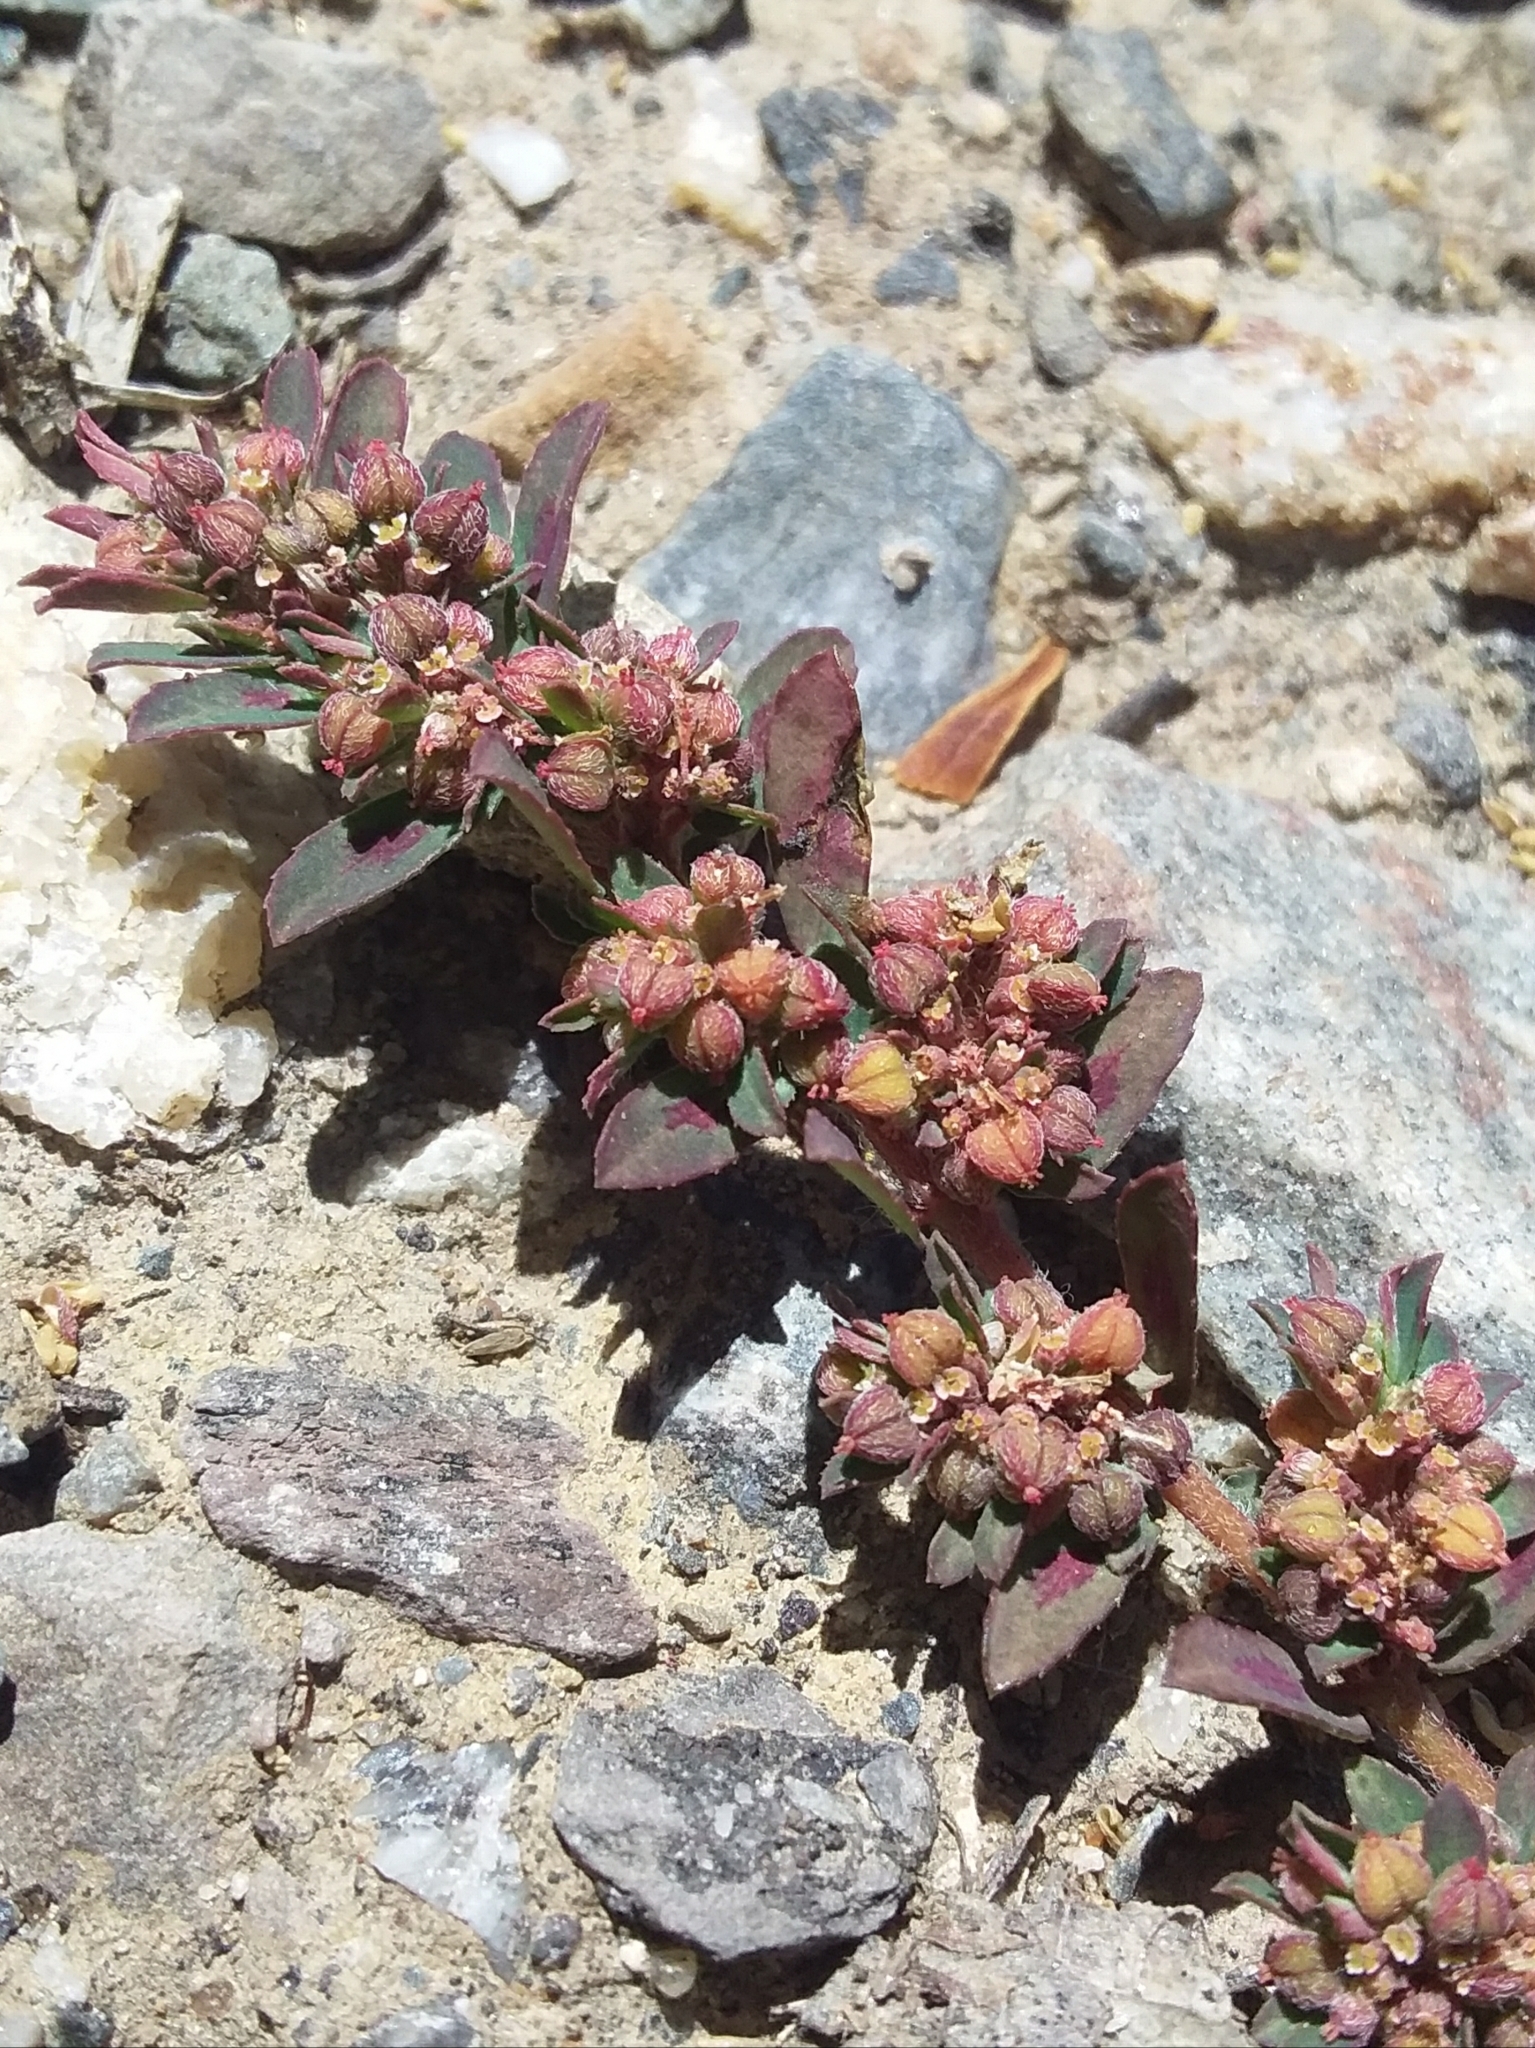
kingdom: Plantae
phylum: Tracheophyta
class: Magnoliopsida
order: Malpighiales
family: Euphorbiaceae
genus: Euphorbia
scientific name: Euphorbia maculata
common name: Spotted spurge
